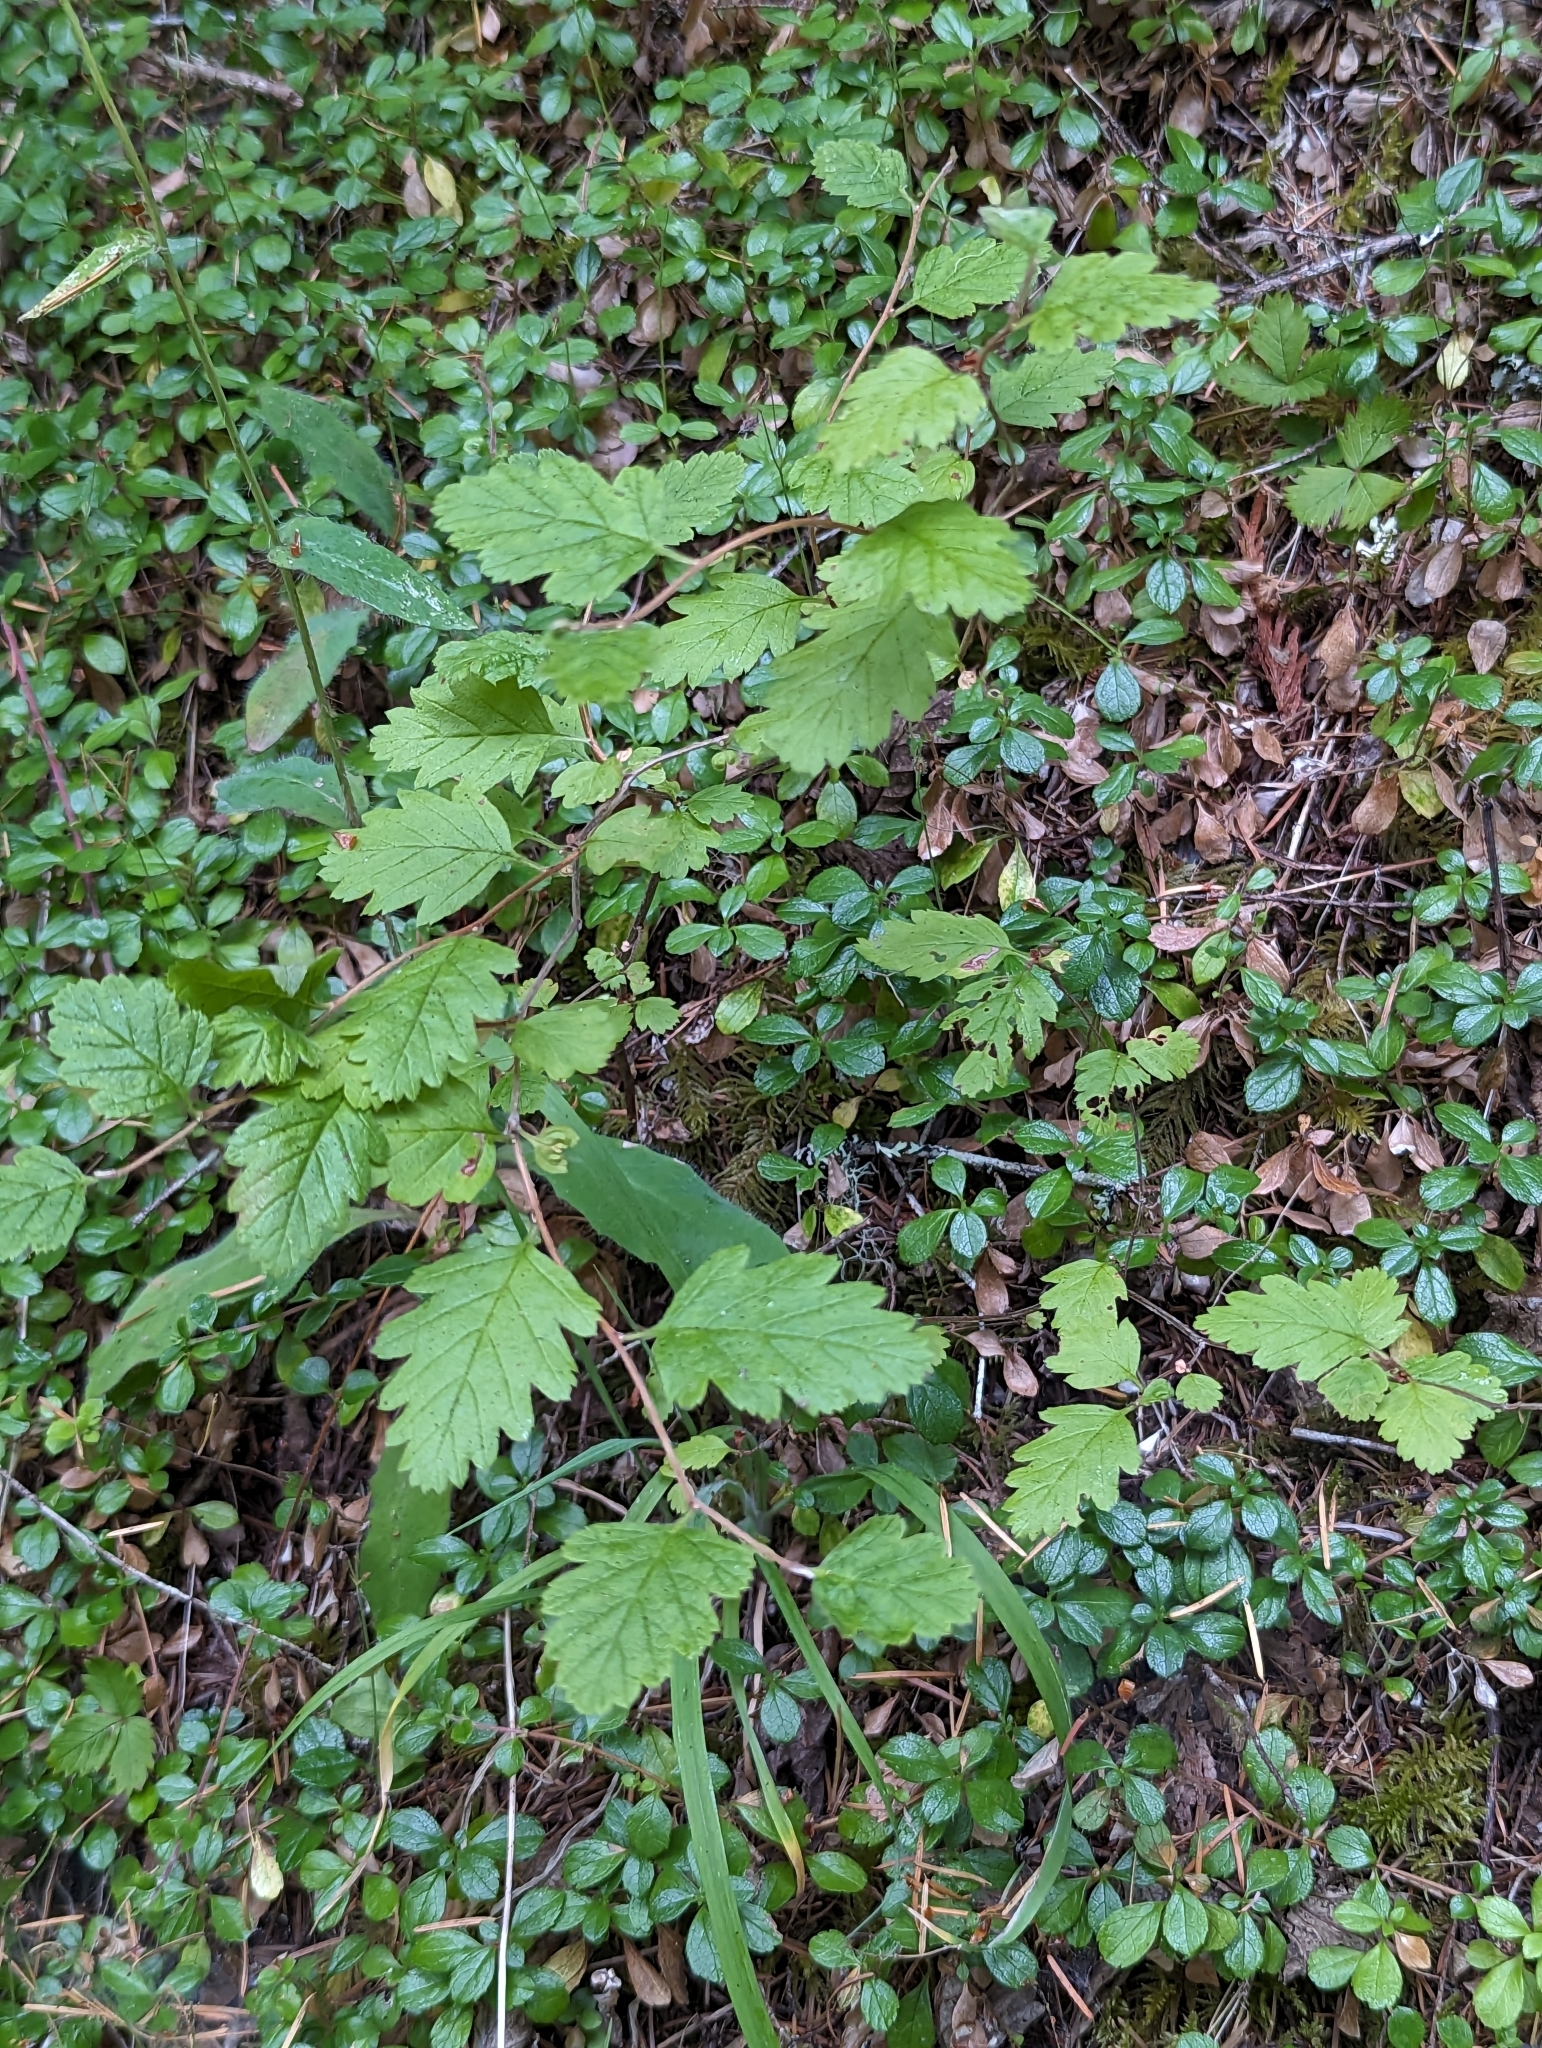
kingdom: Plantae
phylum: Tracheophyta
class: Magnoliopsida
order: Rosales
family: Rosaceae
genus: Holodiscus
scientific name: Holodiscus discolor
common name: Oceanspray
